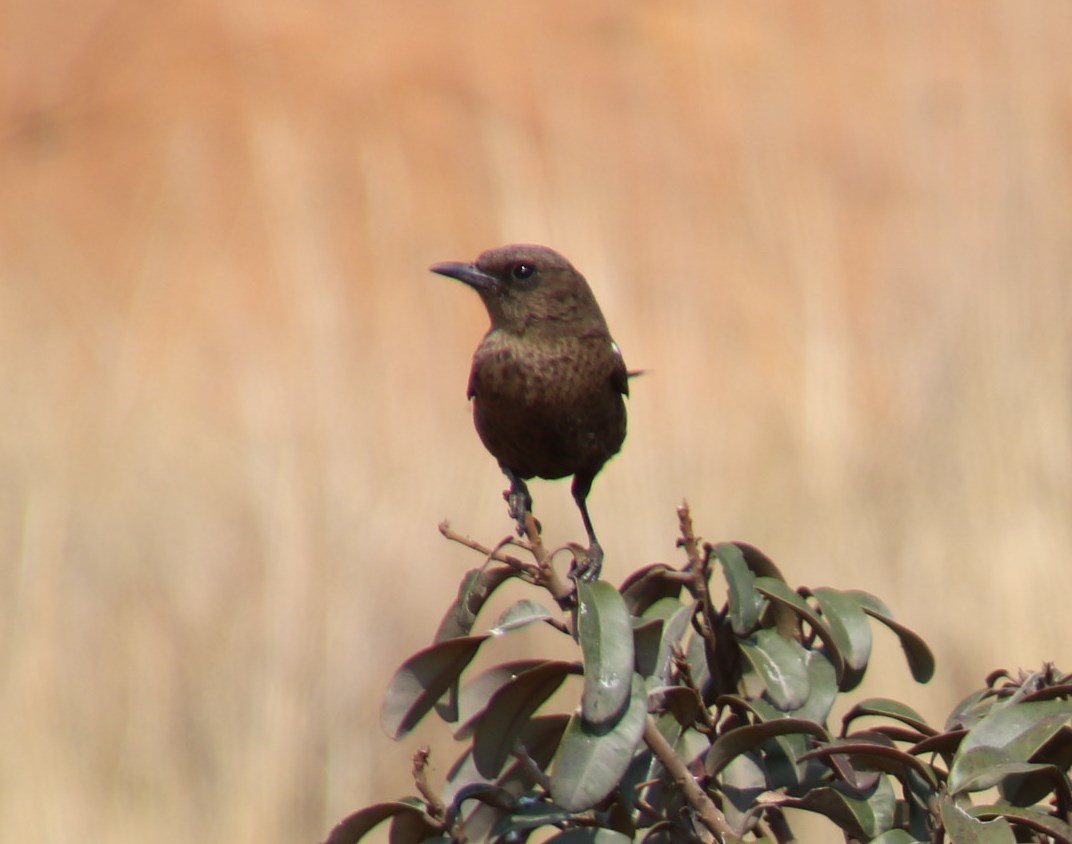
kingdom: Animalia
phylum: Chordata
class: Aves
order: Passeriformes
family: Muscicapidae
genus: Myrmecocichla
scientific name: Myrmecocichla formicivora
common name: Ant-eating chat
